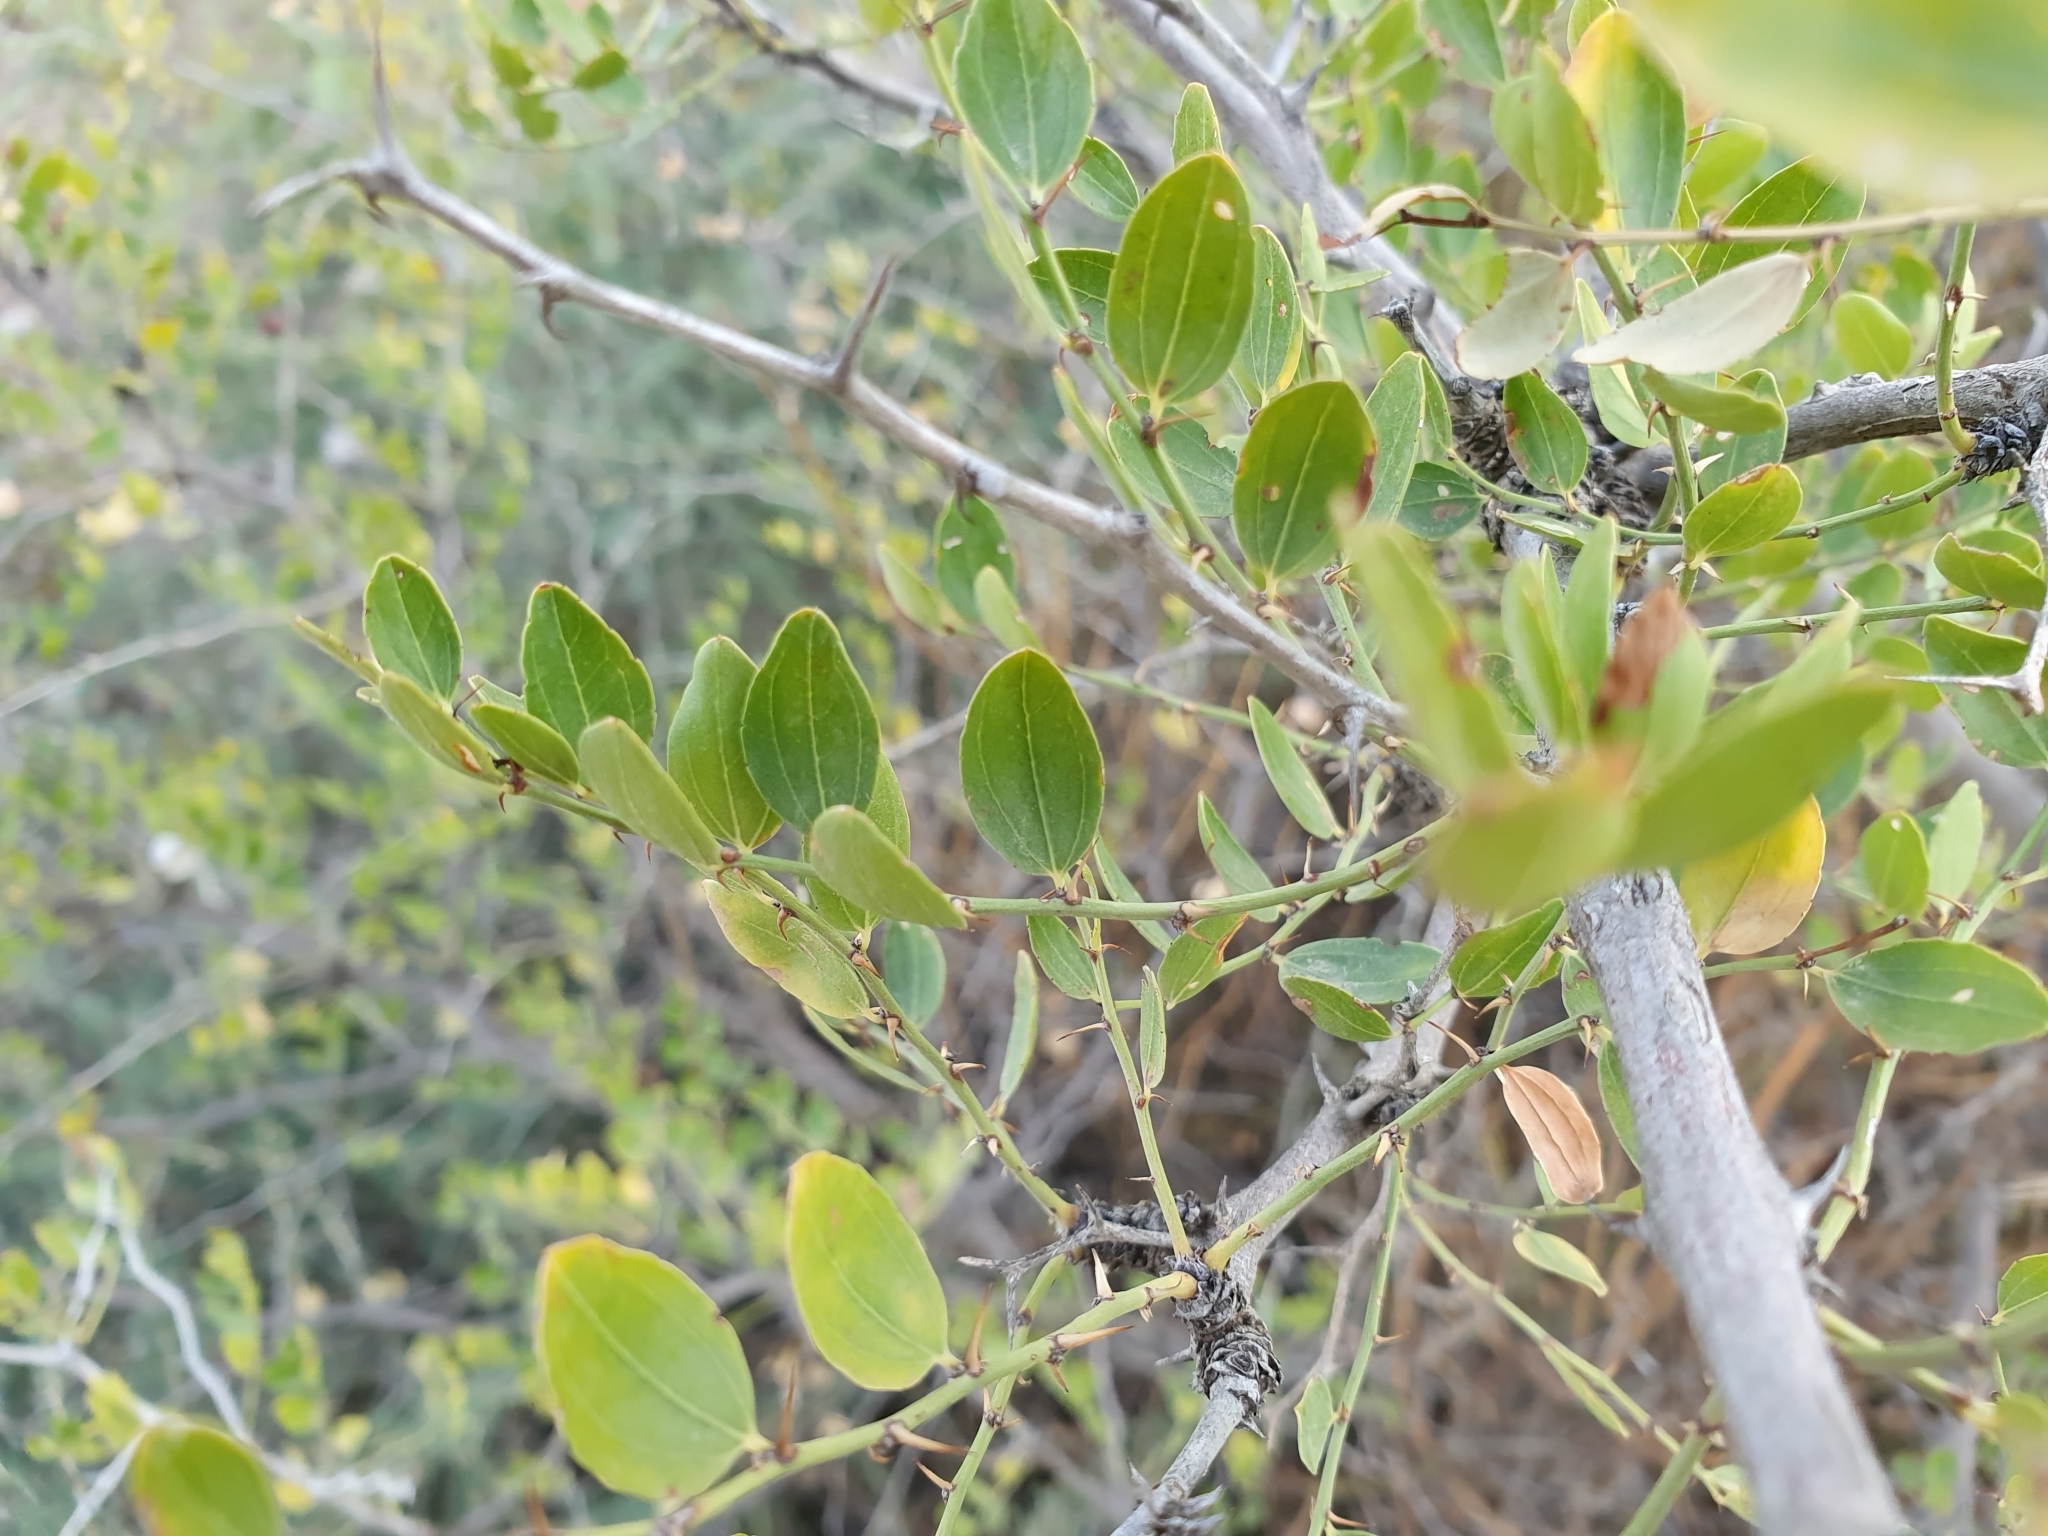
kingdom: Plantae
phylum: Tracheophyta
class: Magnoliopsida
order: Rosales
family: Rhamnaceae
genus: Ziziphus
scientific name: Ziziphus lotus
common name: Lotus
